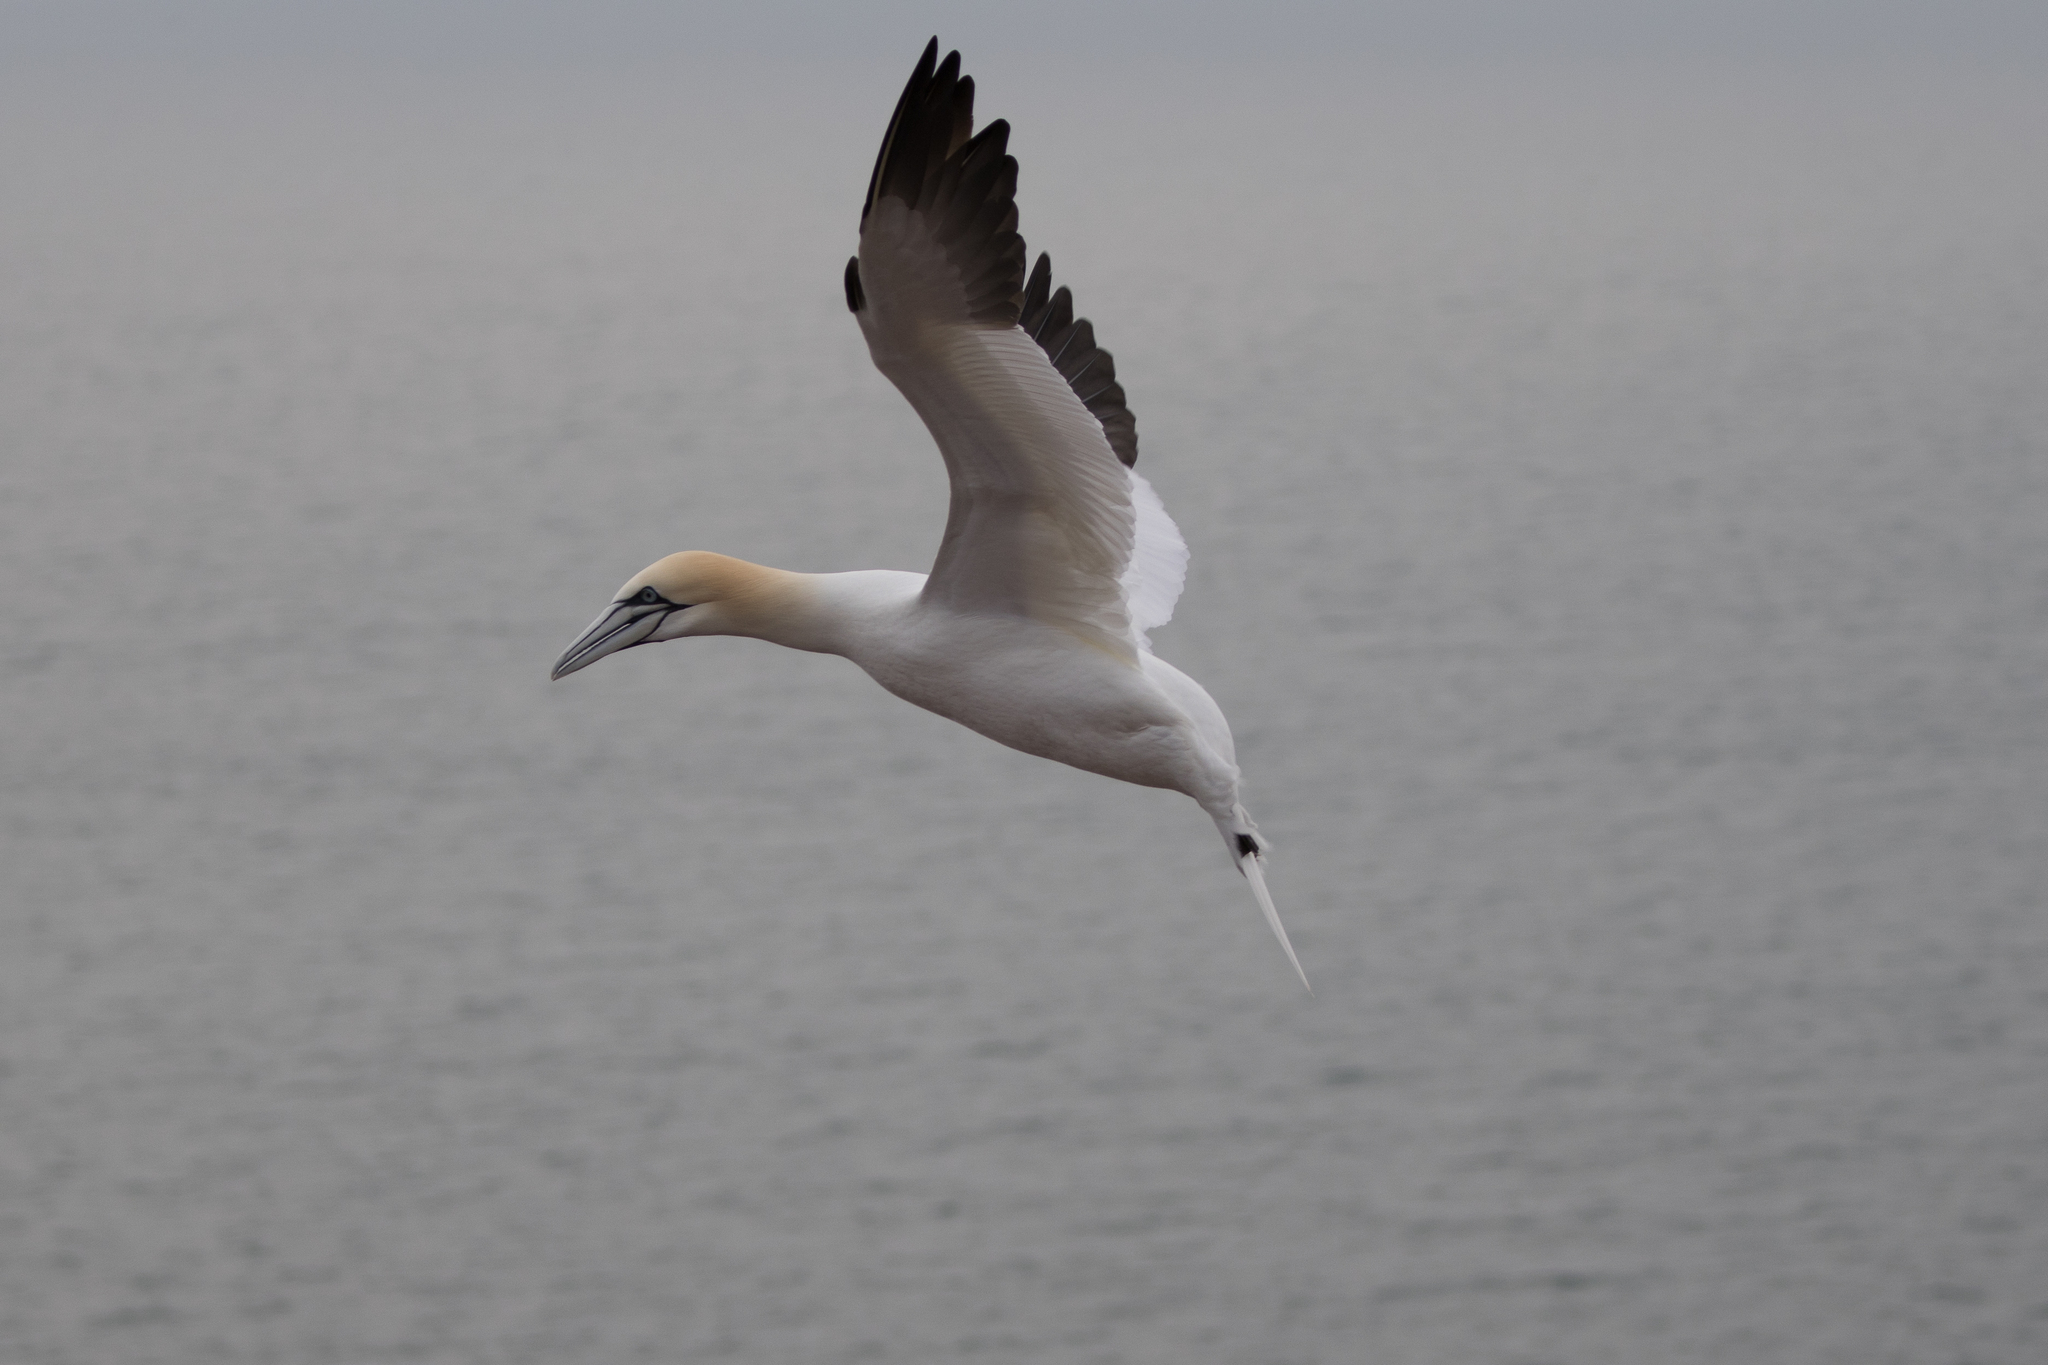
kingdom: Animalia
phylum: Chordata
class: Aves
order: Suliformes
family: Sulidae
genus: Morus
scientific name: Morus bassanus
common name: Northern gannet
